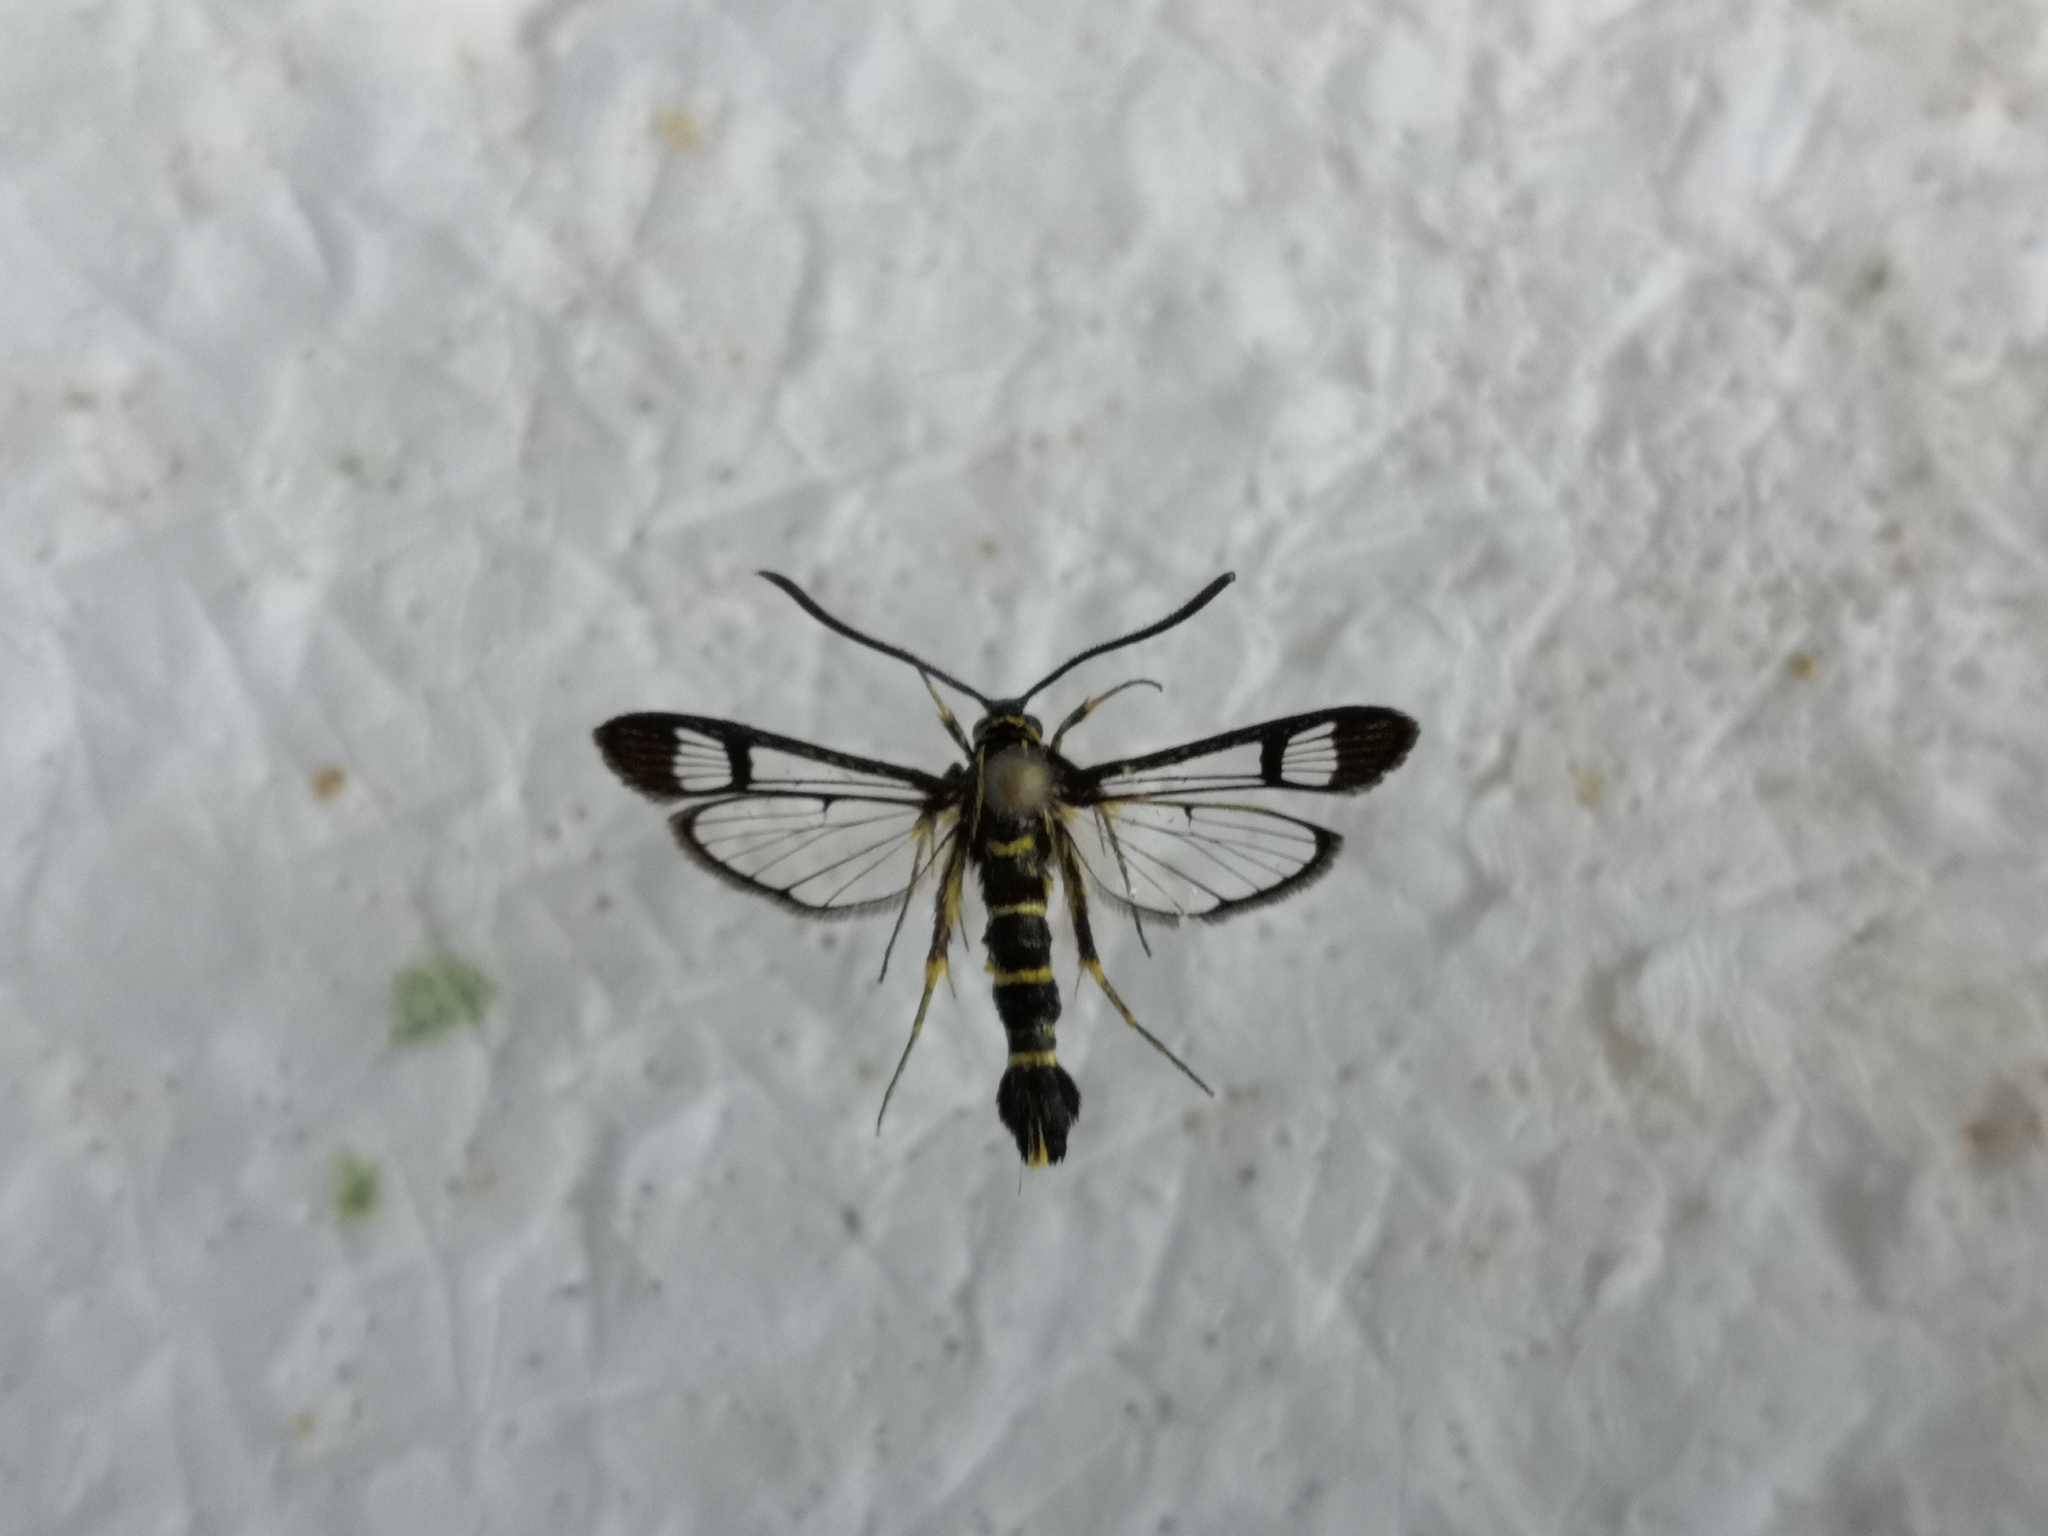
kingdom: Animalia
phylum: Arthropoda
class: Insecta
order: Lepidoptera
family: Sesiidae
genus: Synanthedon
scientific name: Synanthedon loranthi
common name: Mistletoe clearwing
